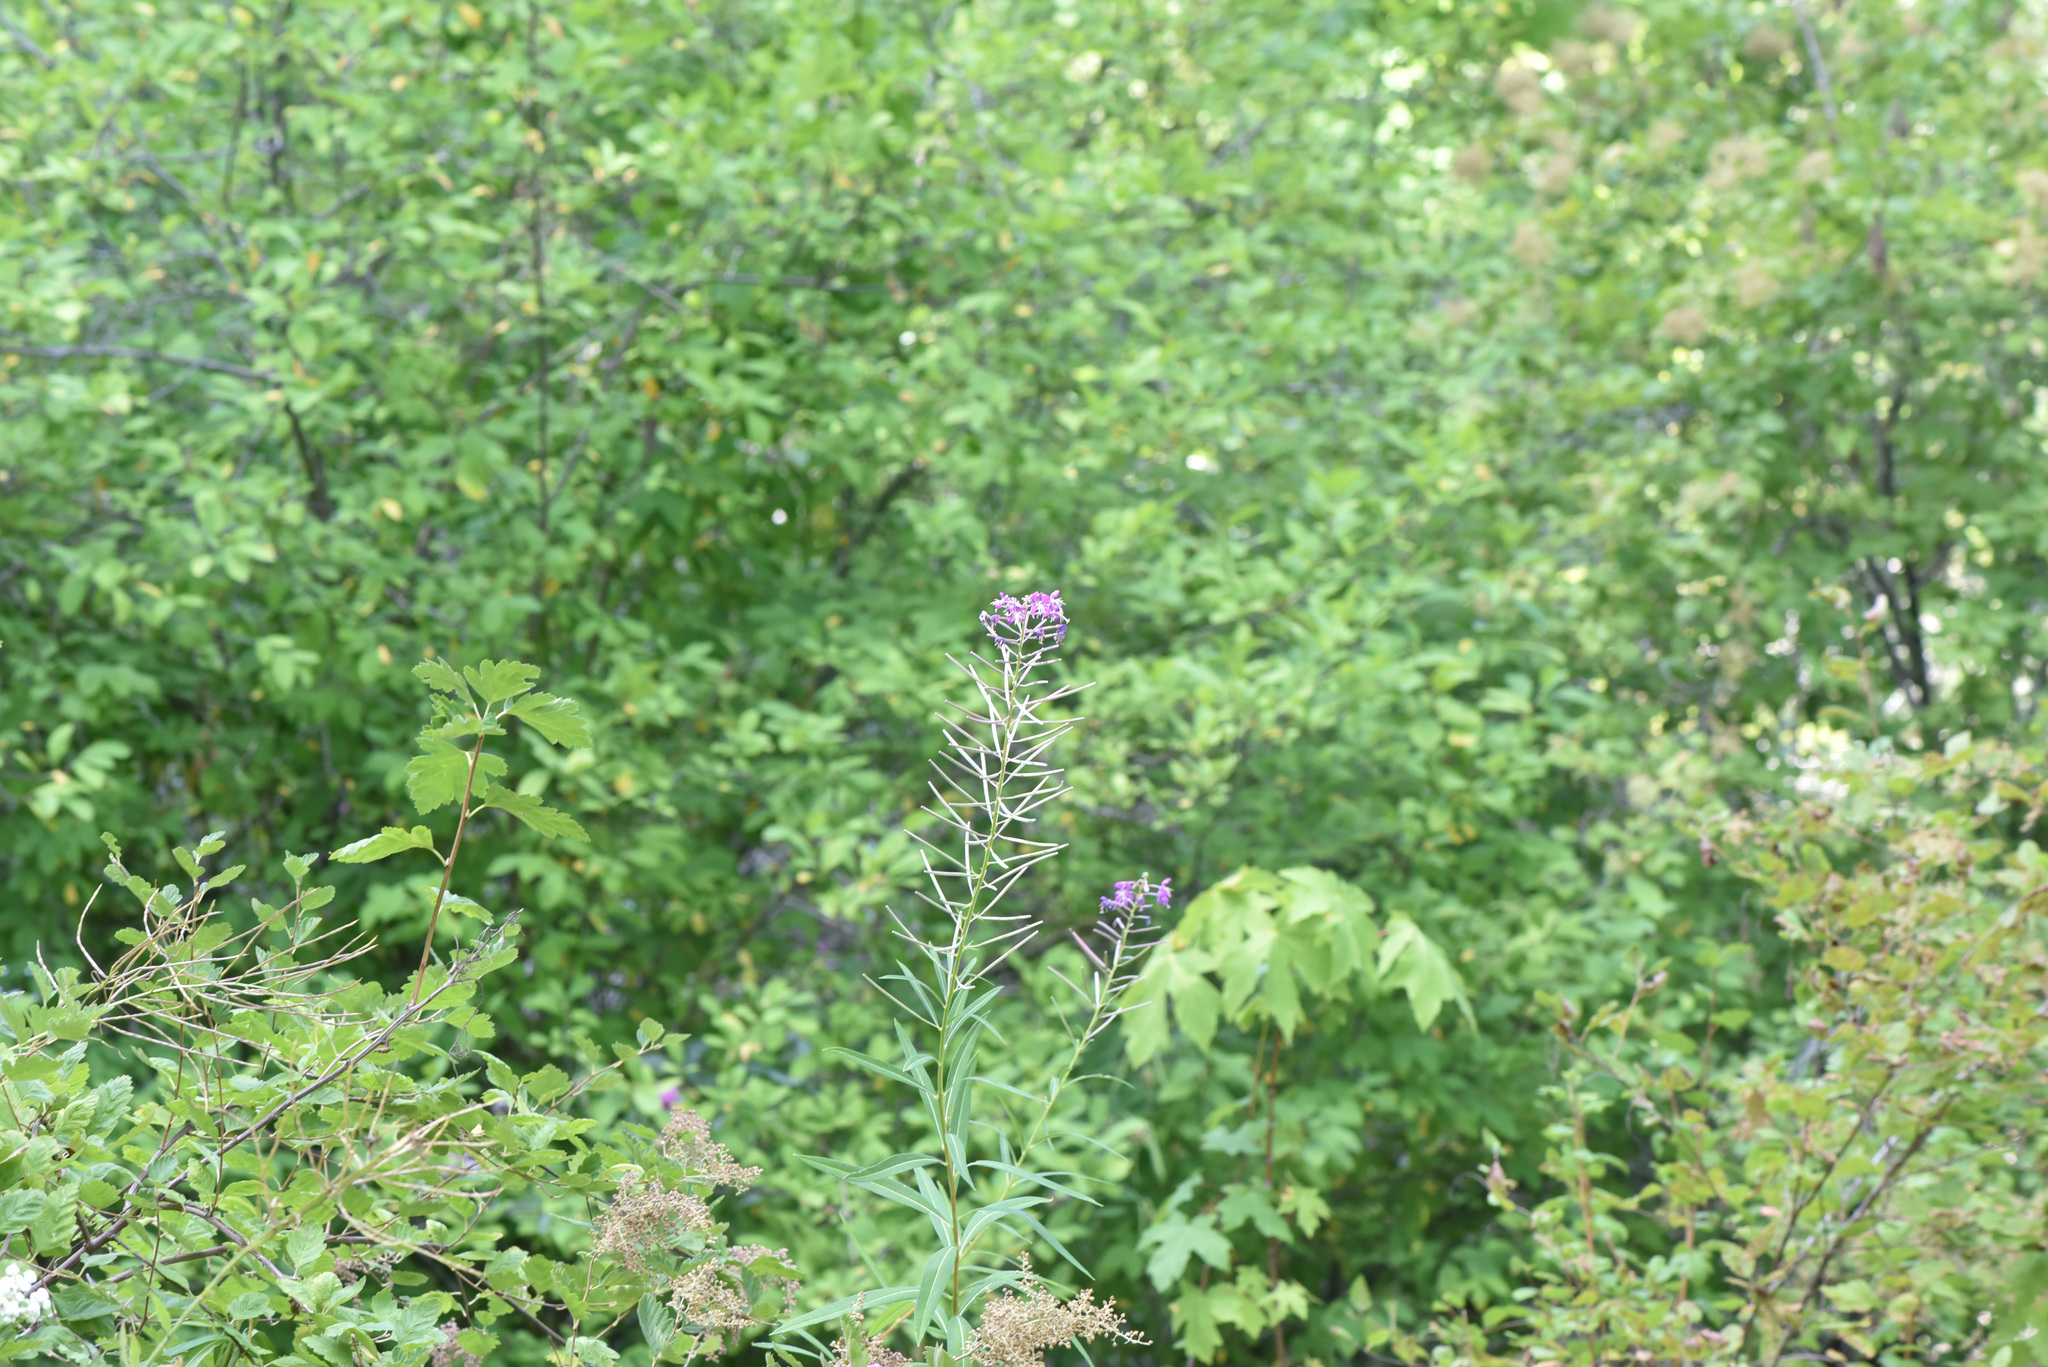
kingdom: Plantae
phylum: Tracheophyta
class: Magnoliopsida
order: Myrtales
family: Onagraceae
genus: Chamaenerion
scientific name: Chamaenerion angustifolium
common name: Fireweed
